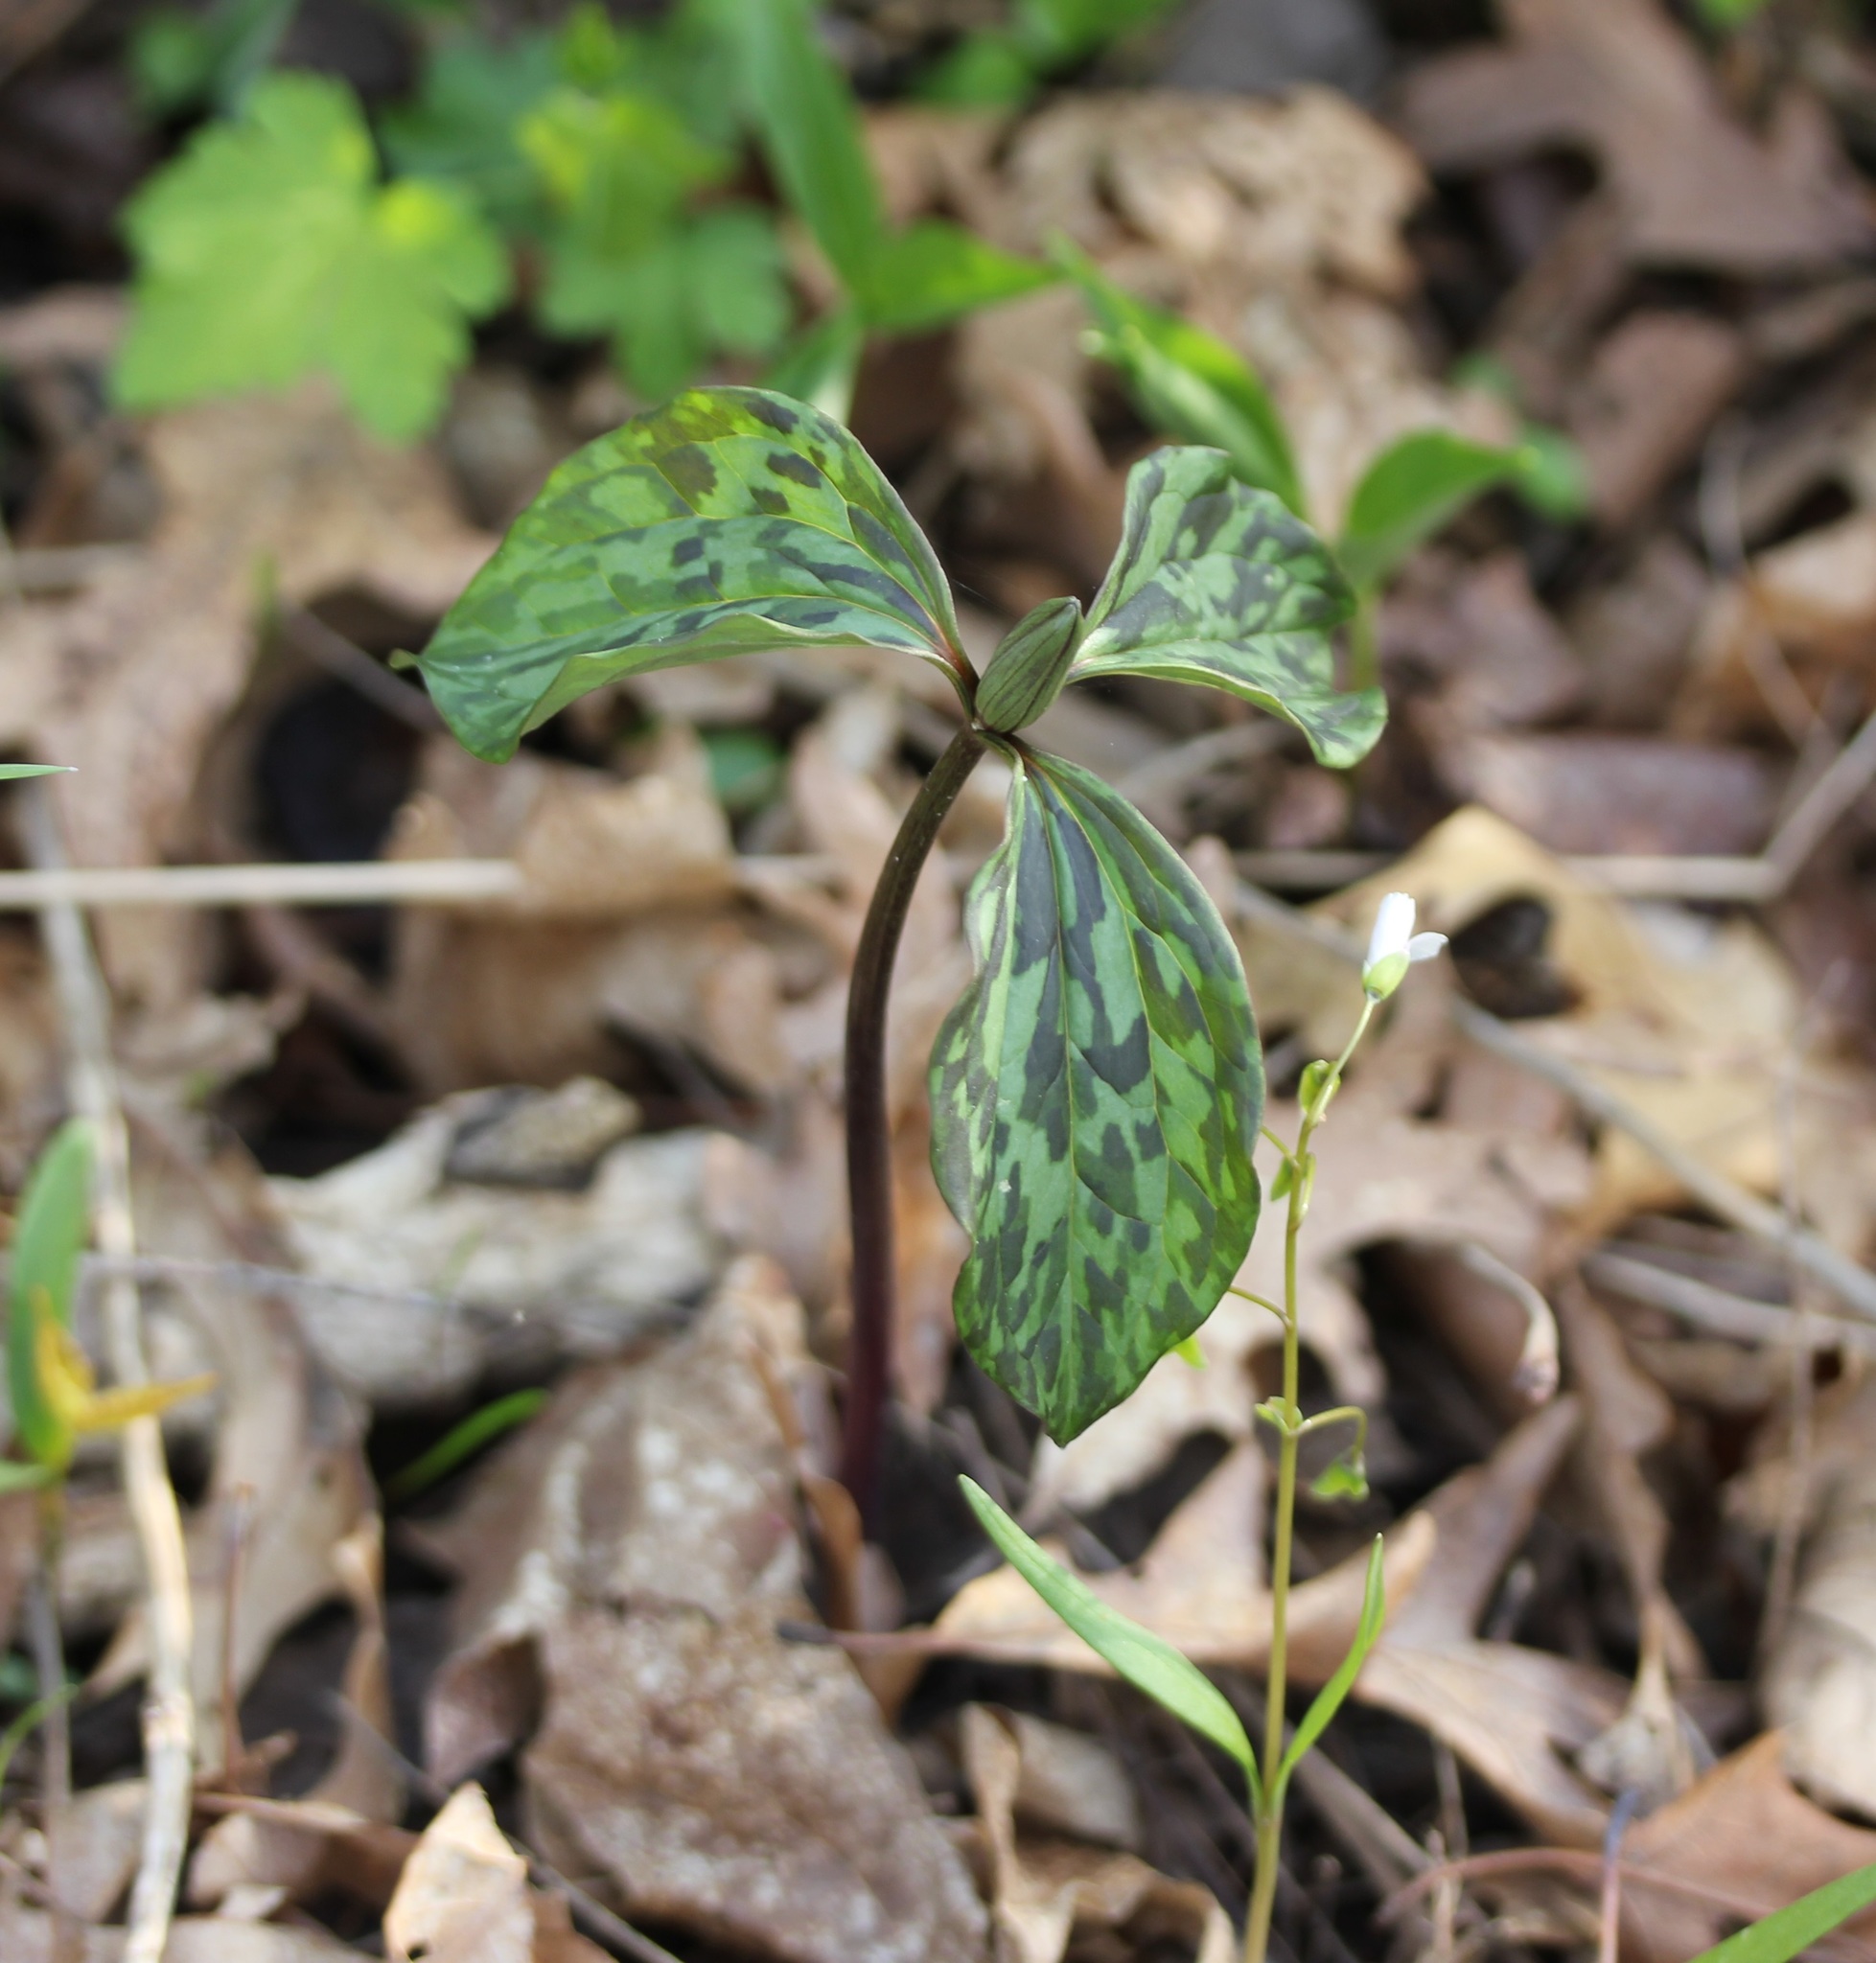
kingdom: Plantae
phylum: Tracheophyta
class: Liliopsida
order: Liliales
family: Melanthiaceae
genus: Trillium
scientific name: Trillium recurvatum
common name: Bloody butcher
